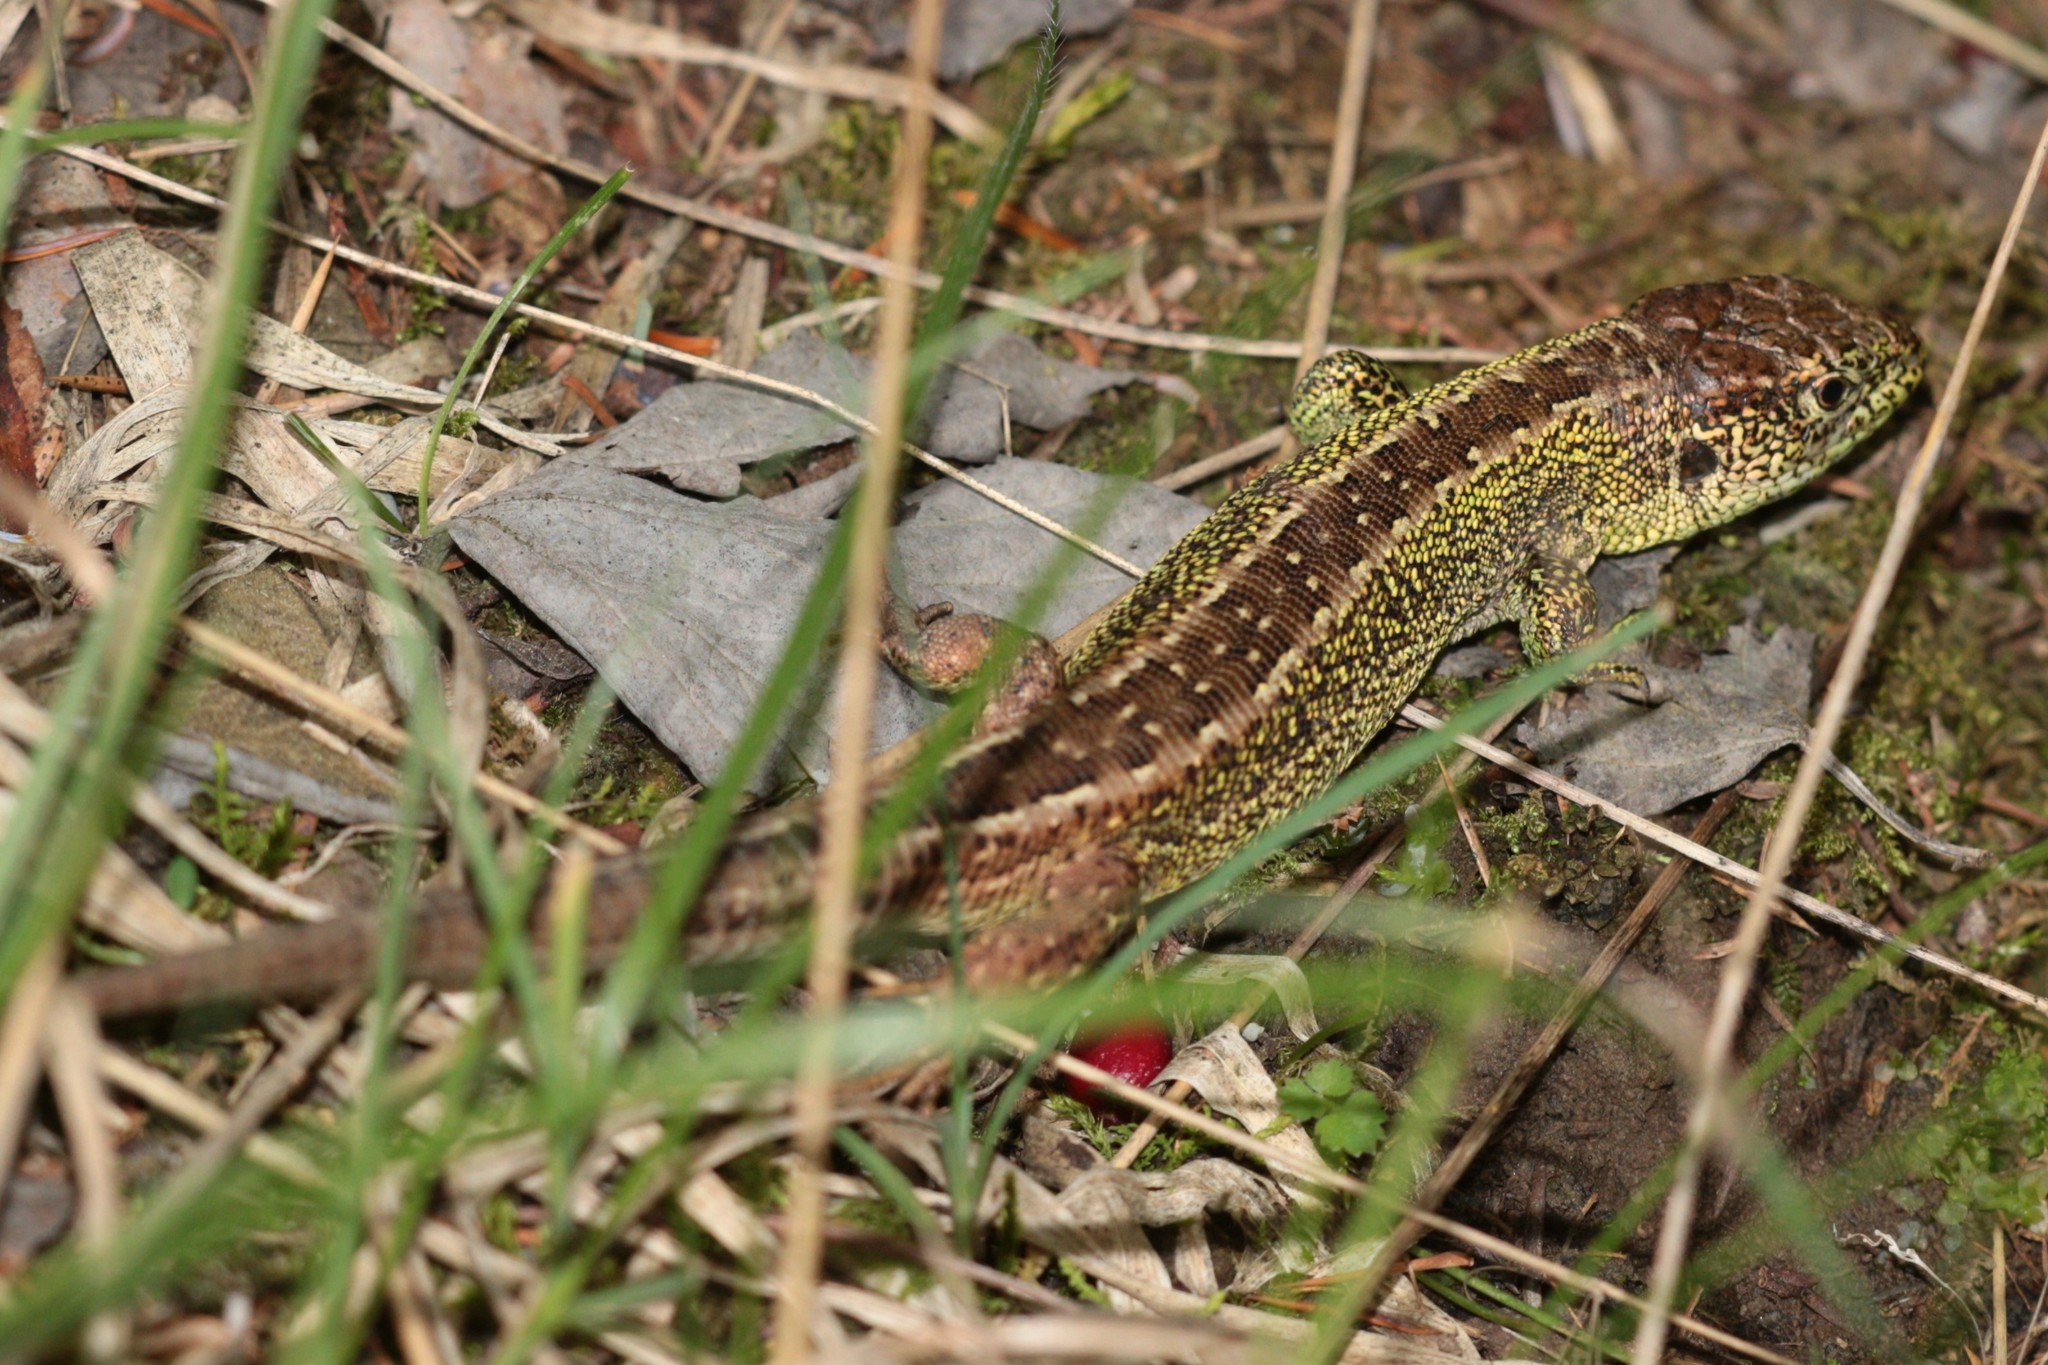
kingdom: Animalia
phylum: Chordata
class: Squamata
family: Lacertidae
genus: Lacerta
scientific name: Lacerta agilis
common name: Sand lizard
